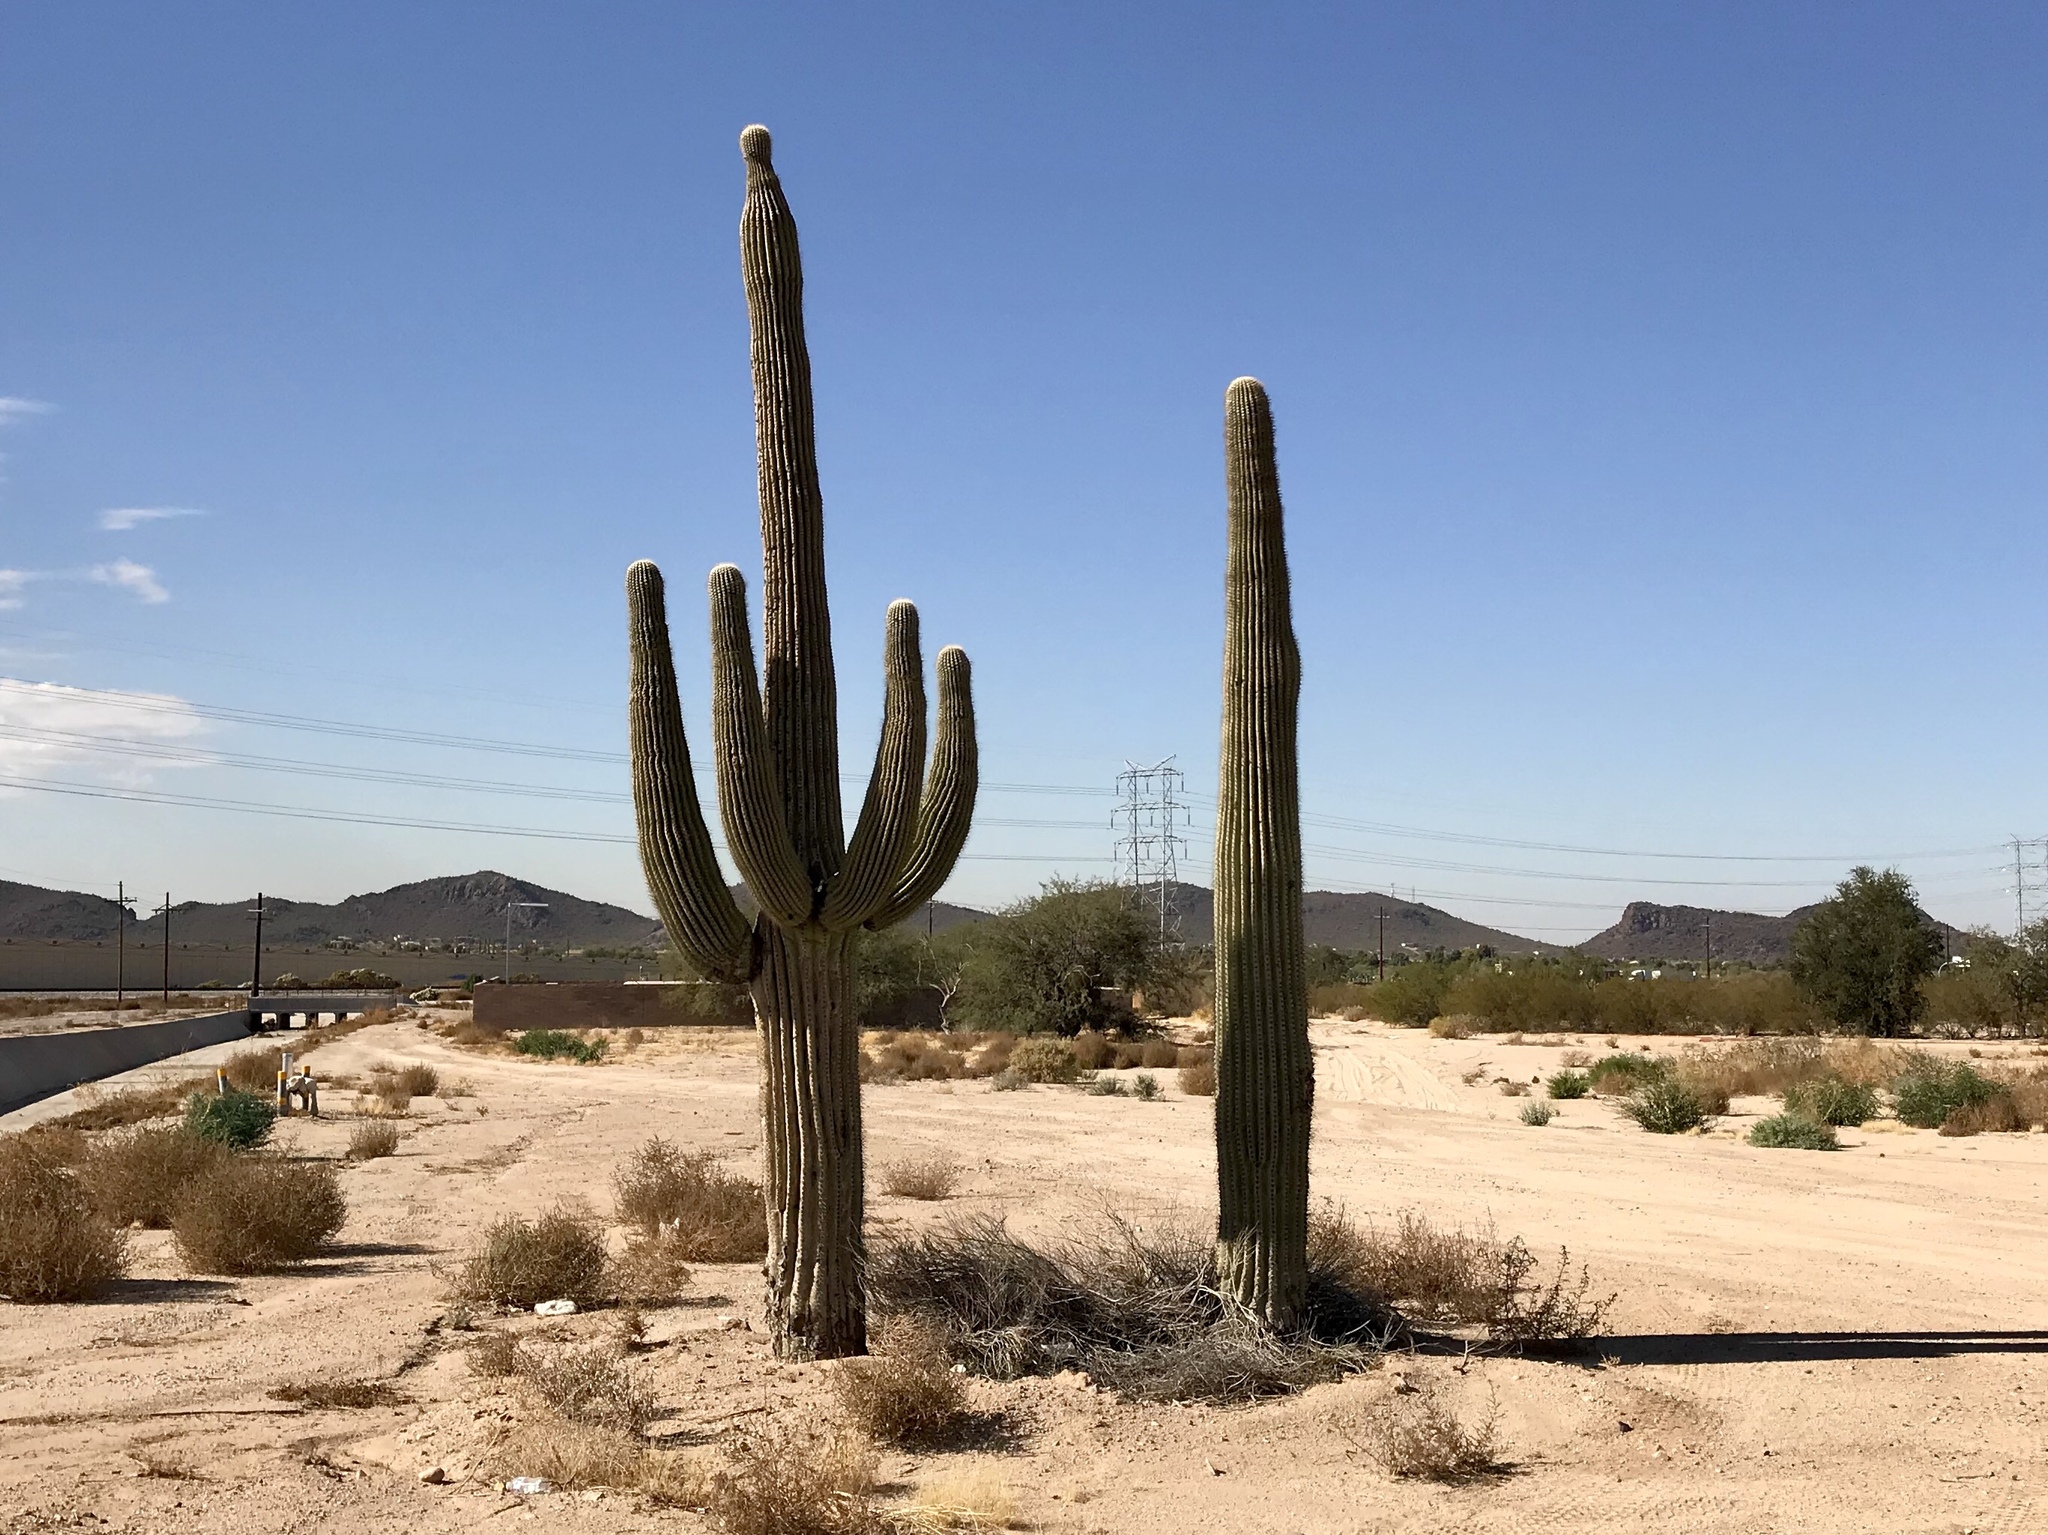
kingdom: Plantae
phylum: Tracheophyta
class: Magnoliopsida
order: Caryophyllales
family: Cactaceae
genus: Carnegiea
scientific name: Carnegiea gigantea
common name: Saguaro
